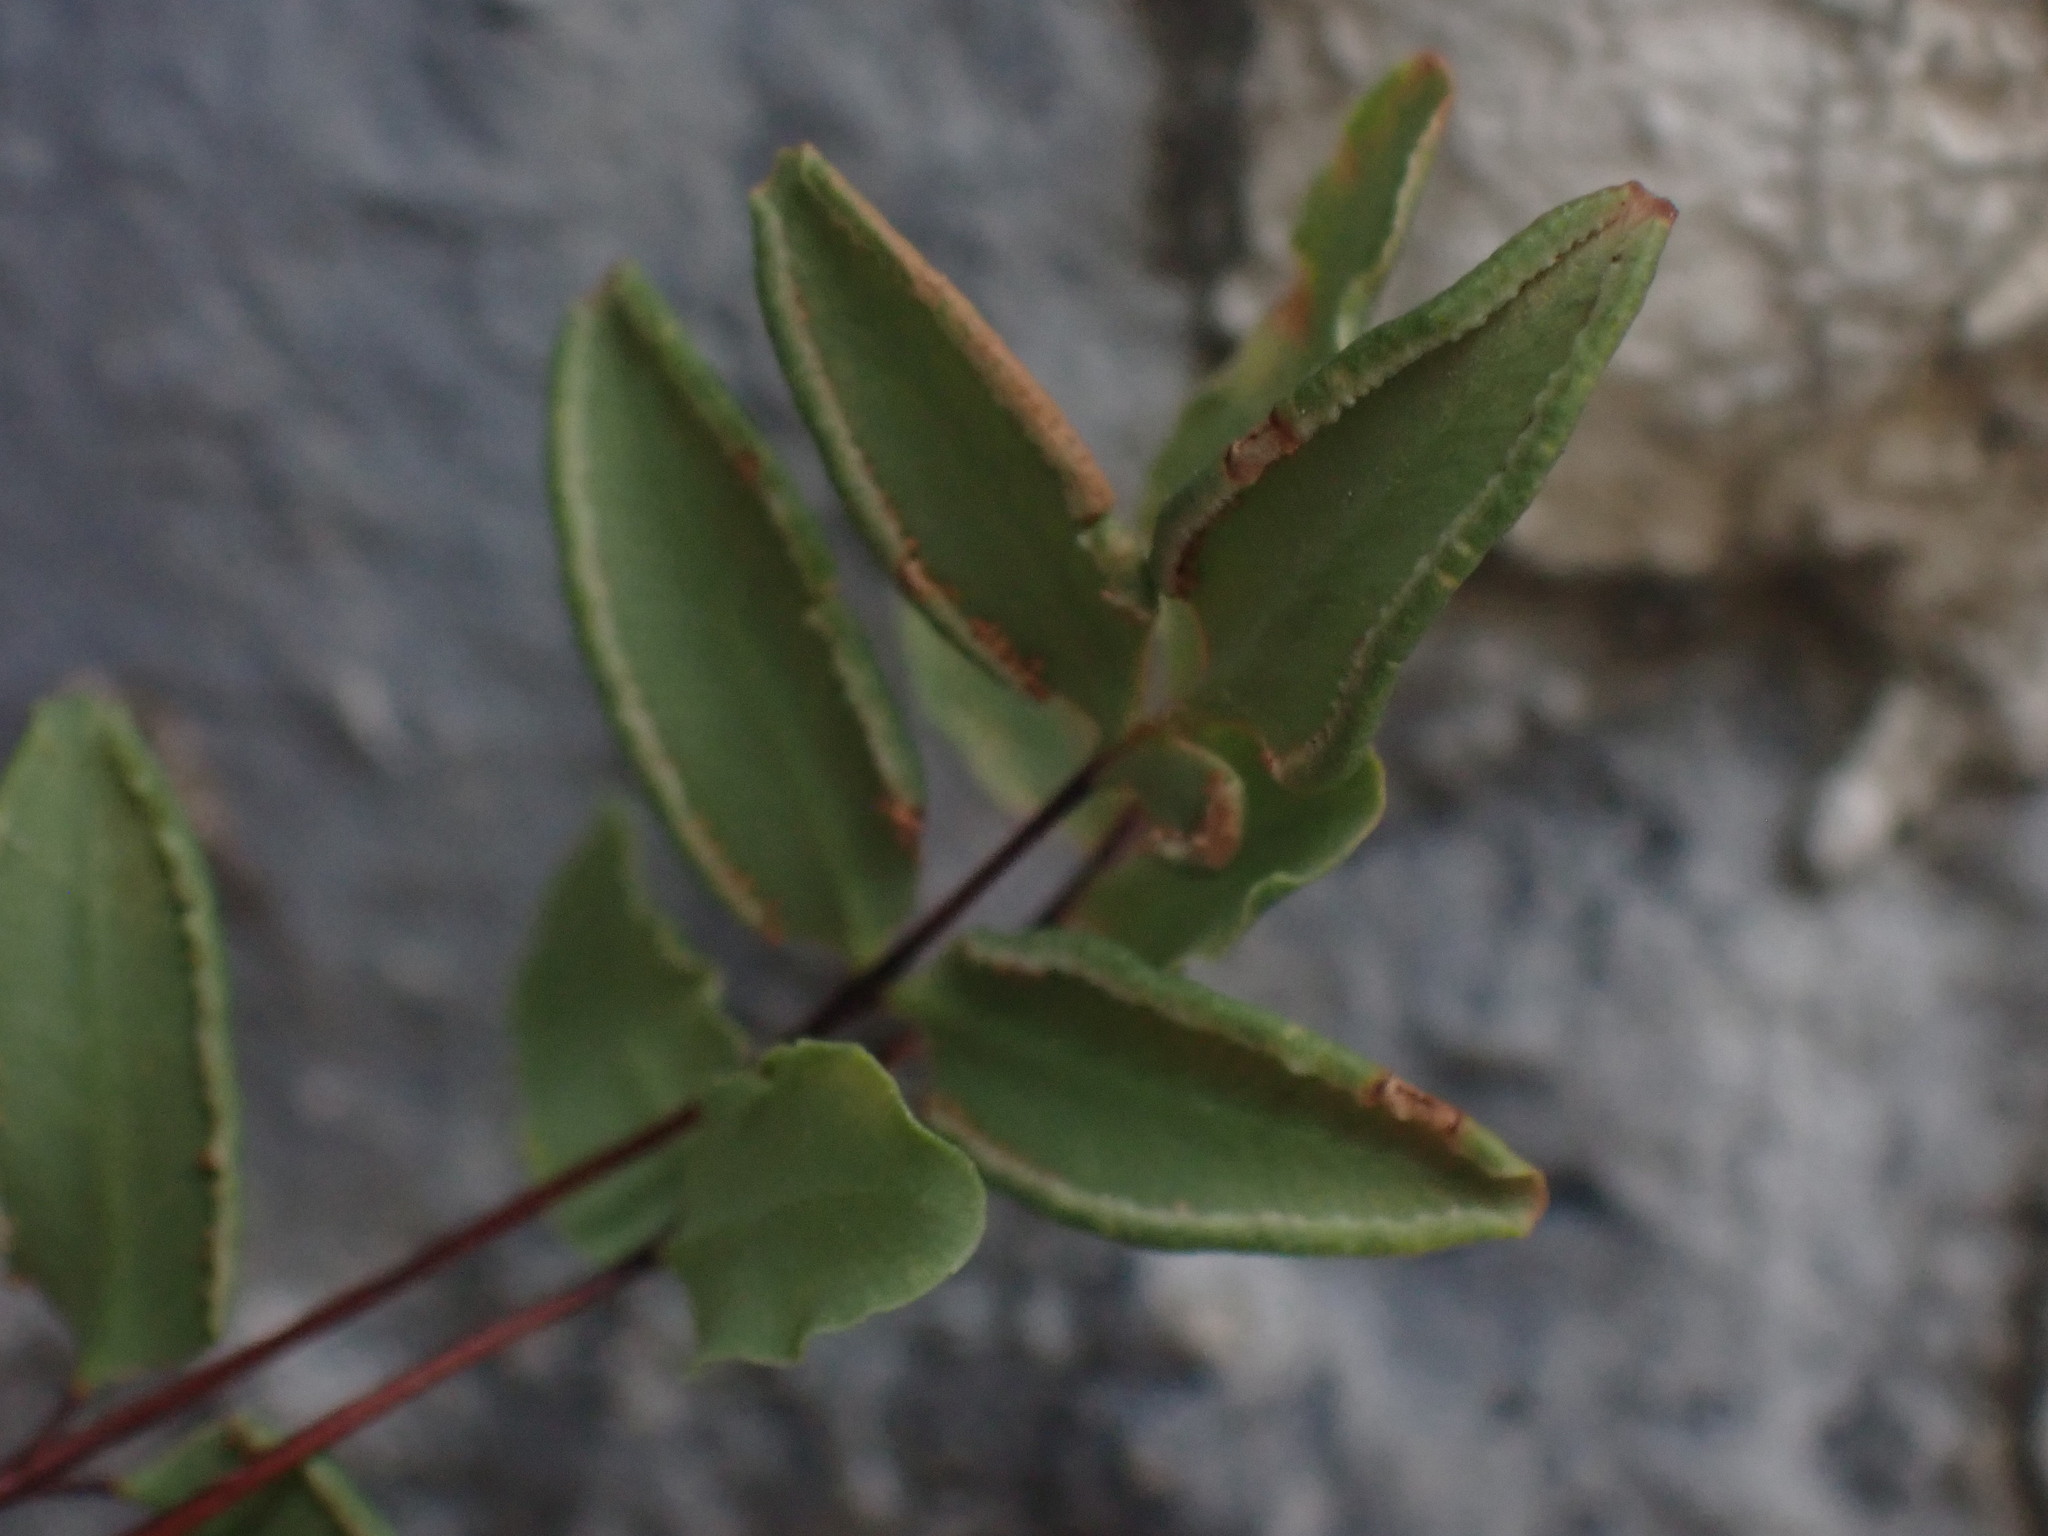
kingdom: Plantae
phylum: Tracheophyta
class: Polypodiopsida
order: Polypodiales
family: Pteridaceae
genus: Pellaea
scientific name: Pellaea glabella
